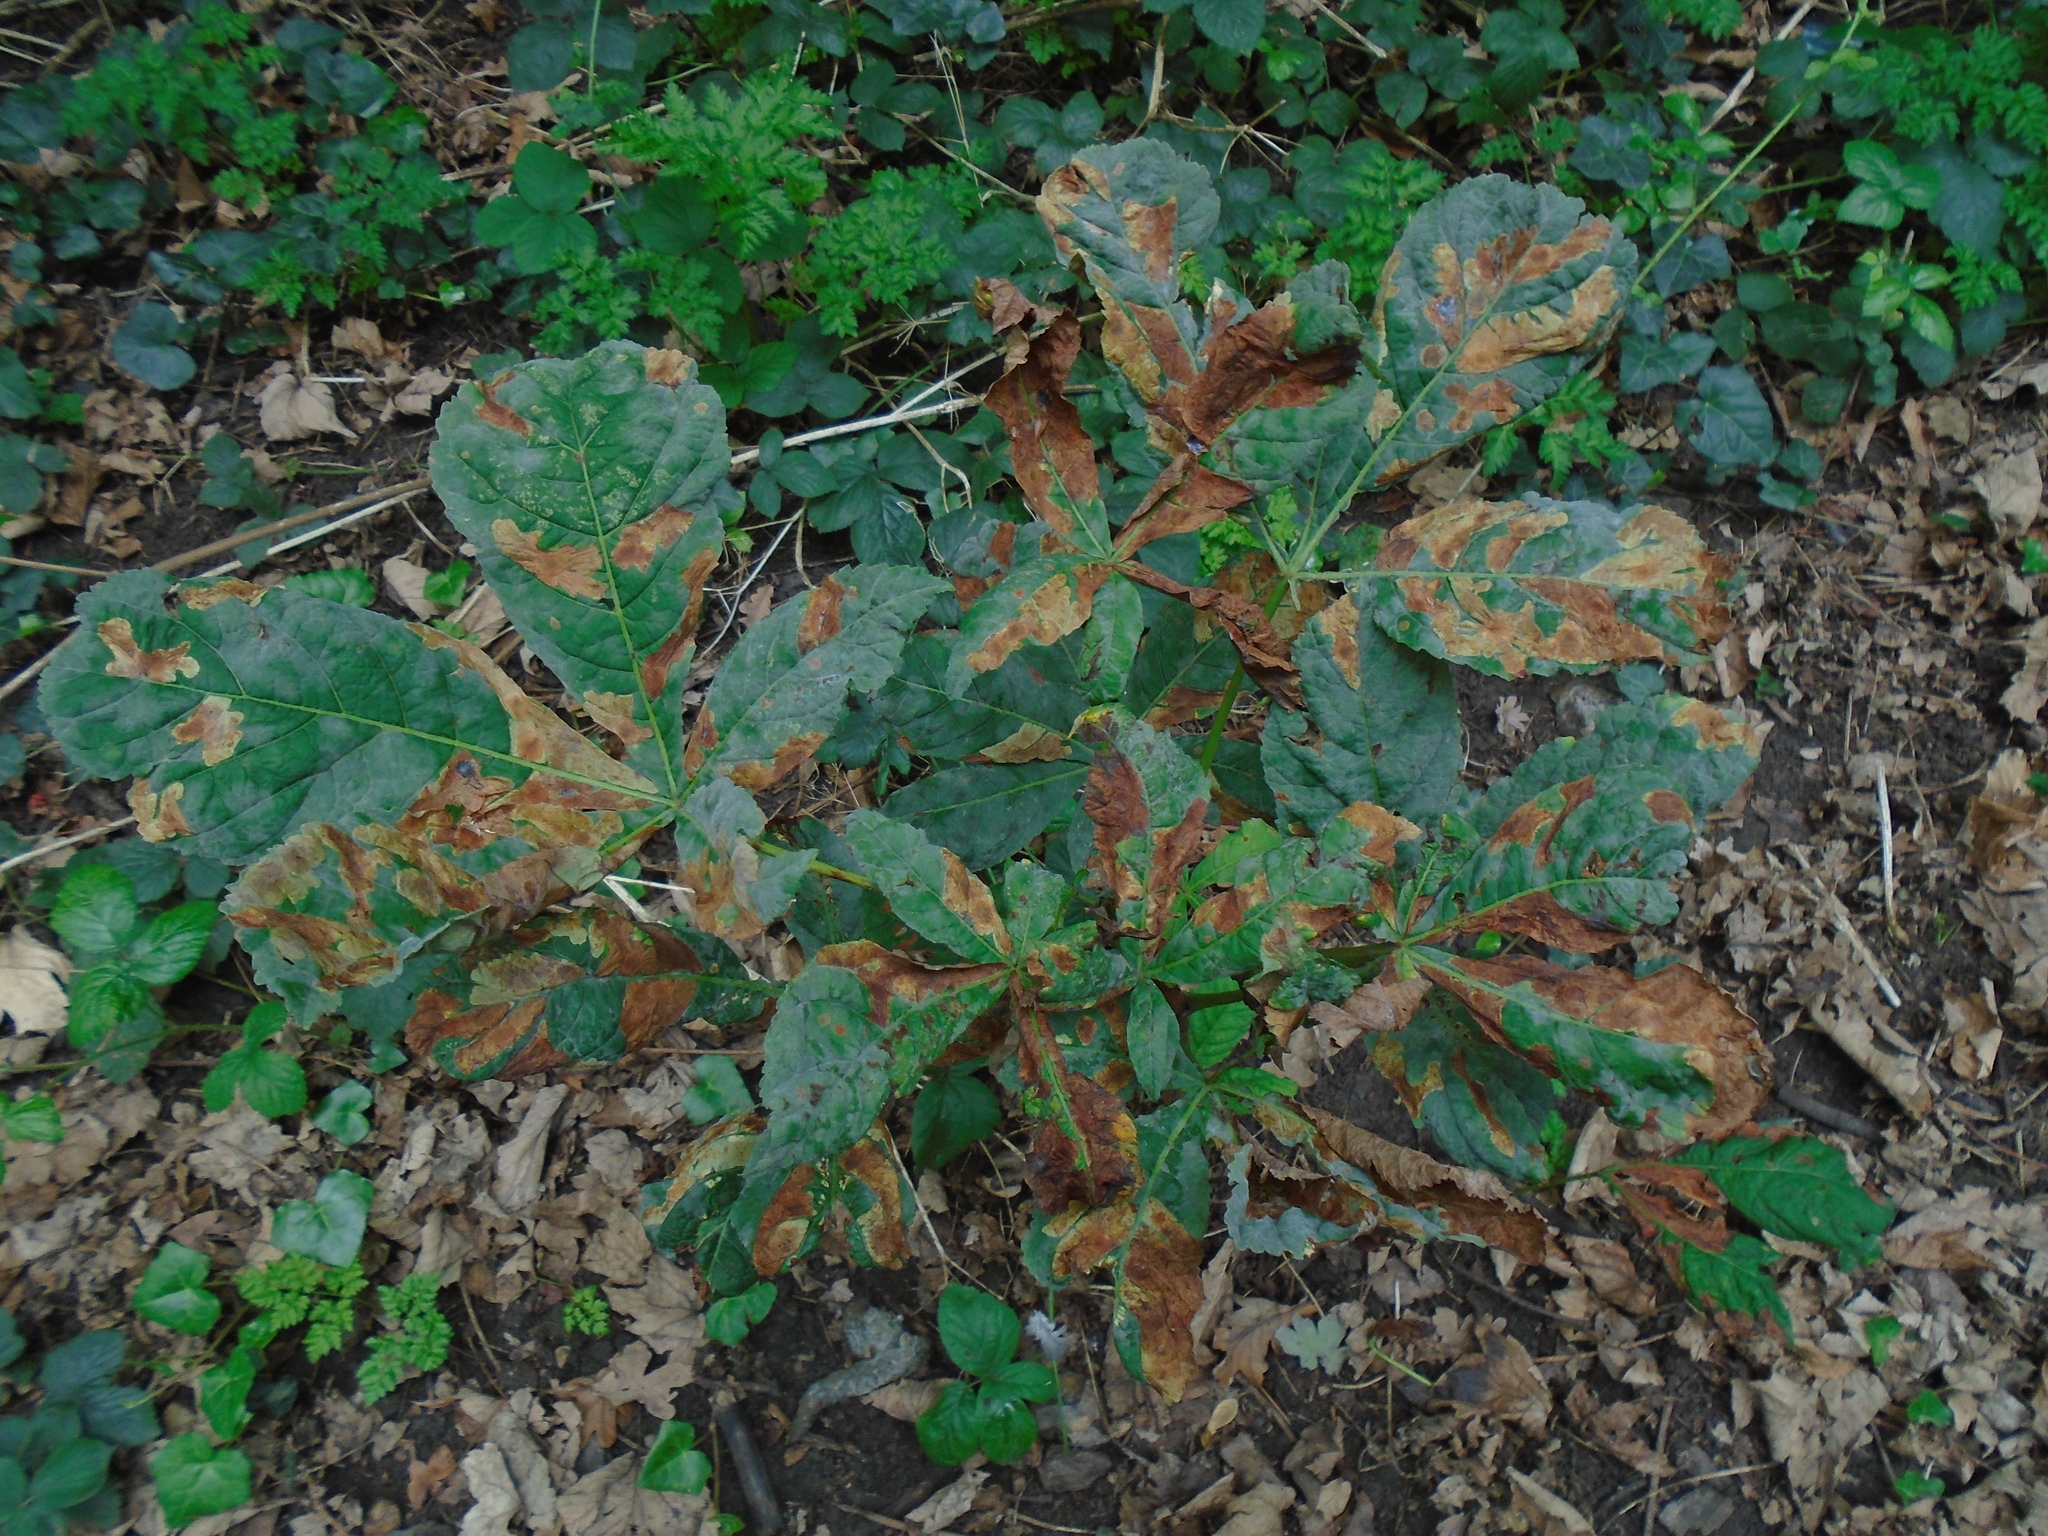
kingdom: Animalia
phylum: Arthropoda
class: Insecta
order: Lepidoptera
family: Gracillariidae
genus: Cameraria
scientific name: Cameraria ohridella
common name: Horse-chestnut leaf-miner
